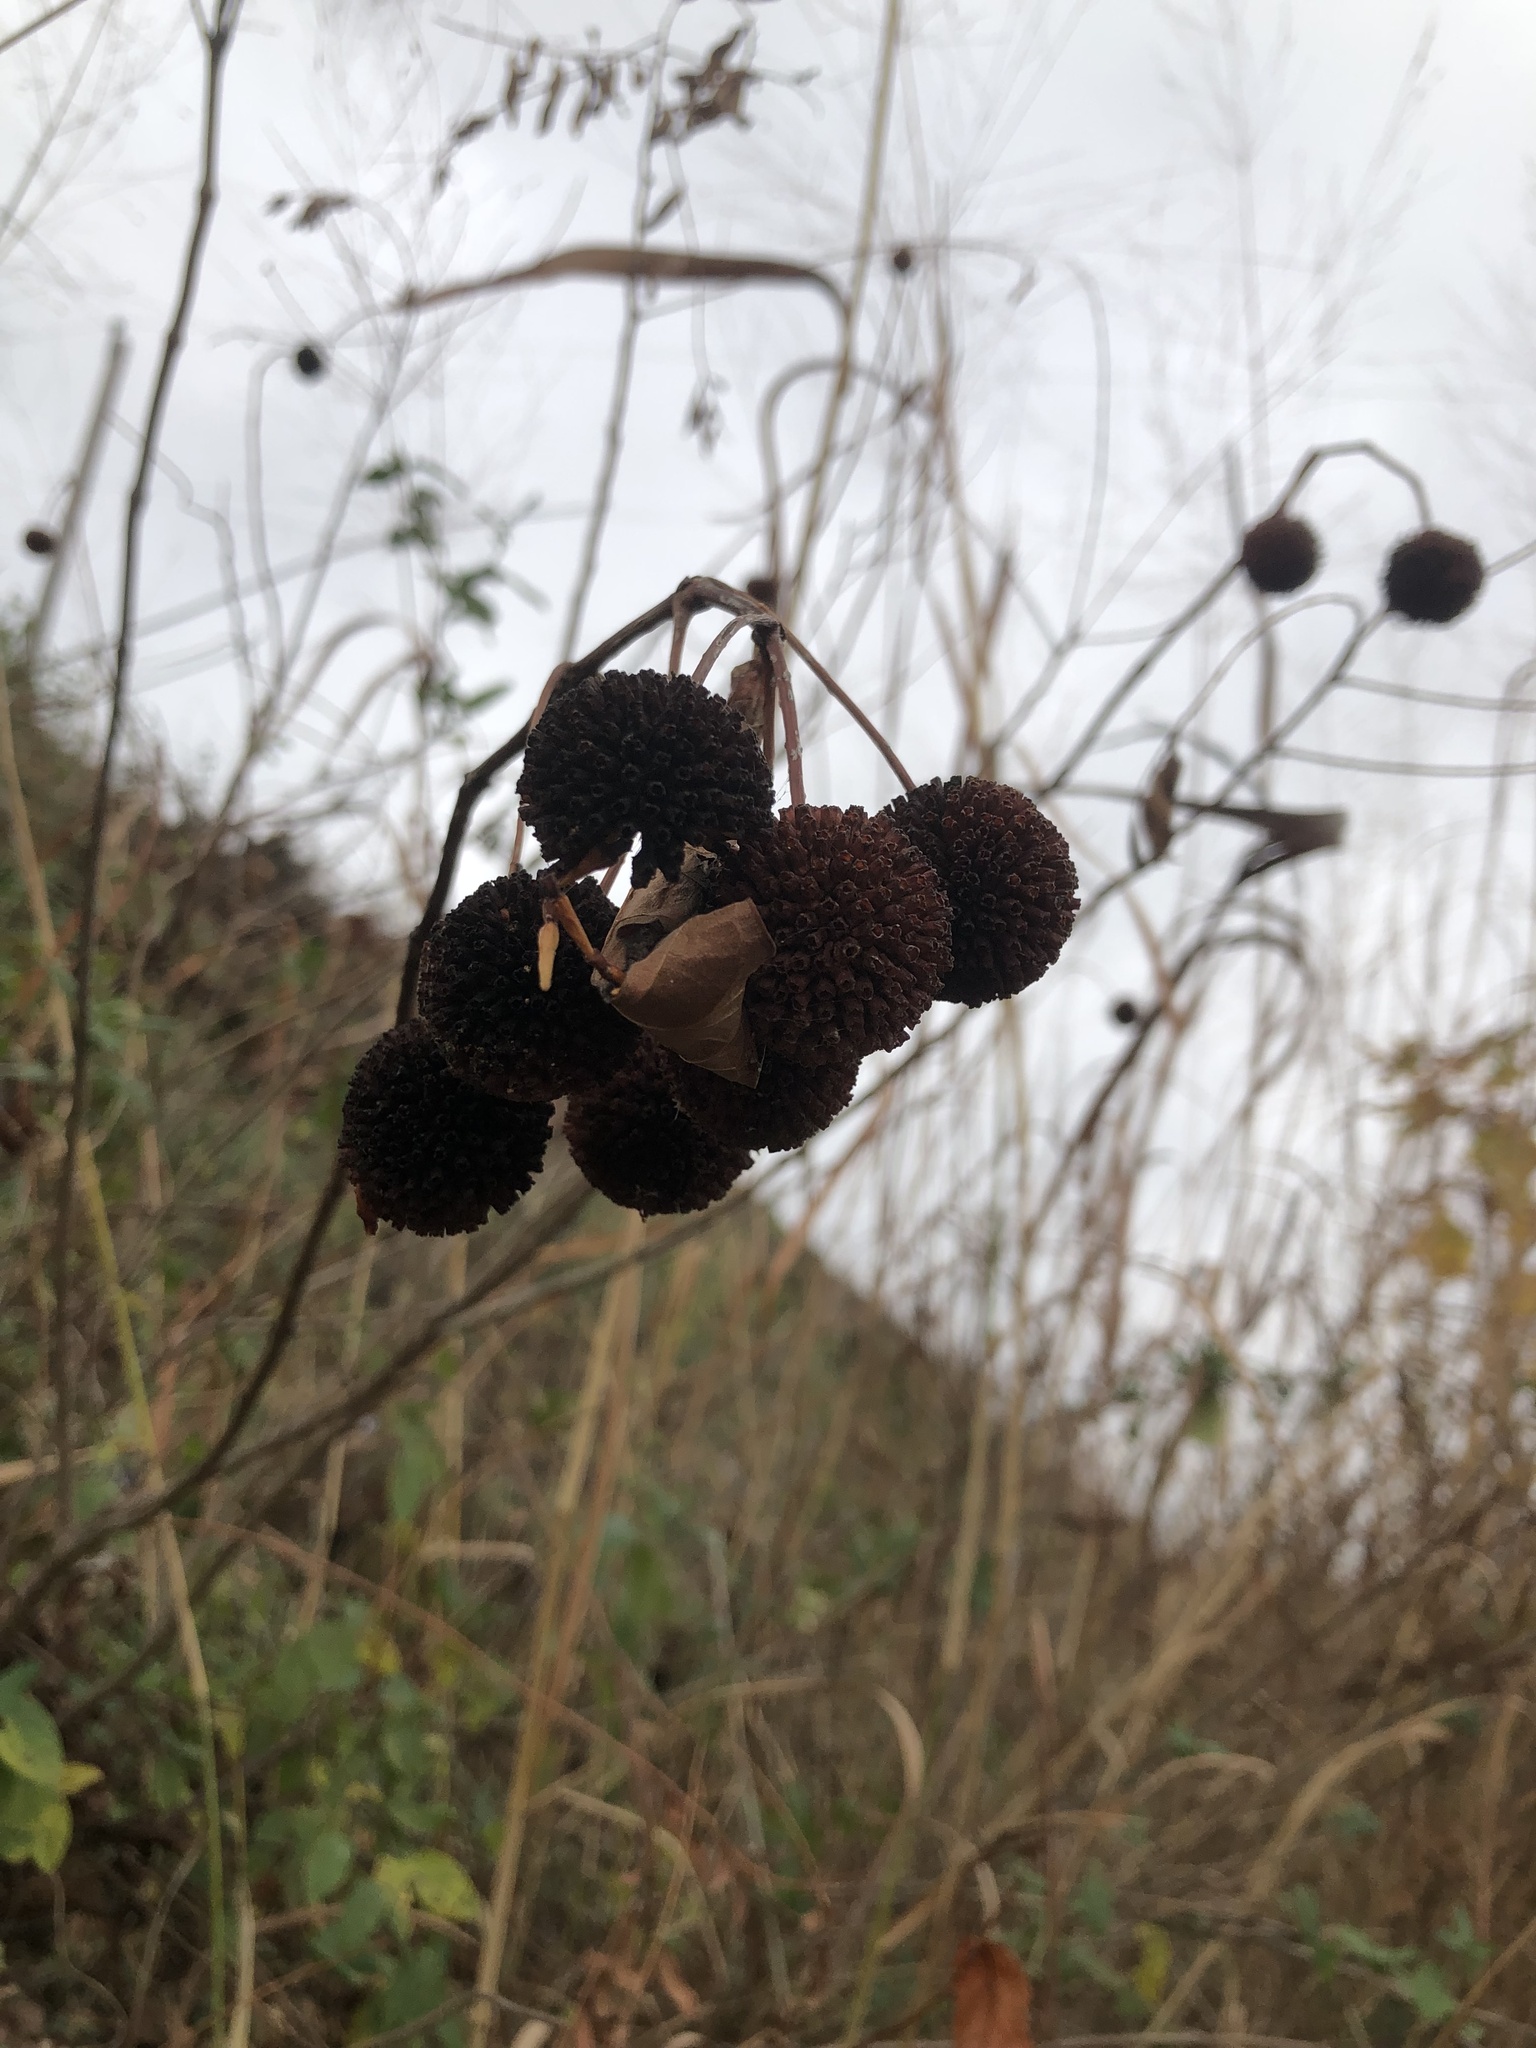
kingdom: Plantae
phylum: Tracheophyta
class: Magnoliopsida
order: Gentianales
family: Rubiaceae
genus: Cephalanthus
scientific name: Cephalanthus occidentalis
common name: Button-willow
